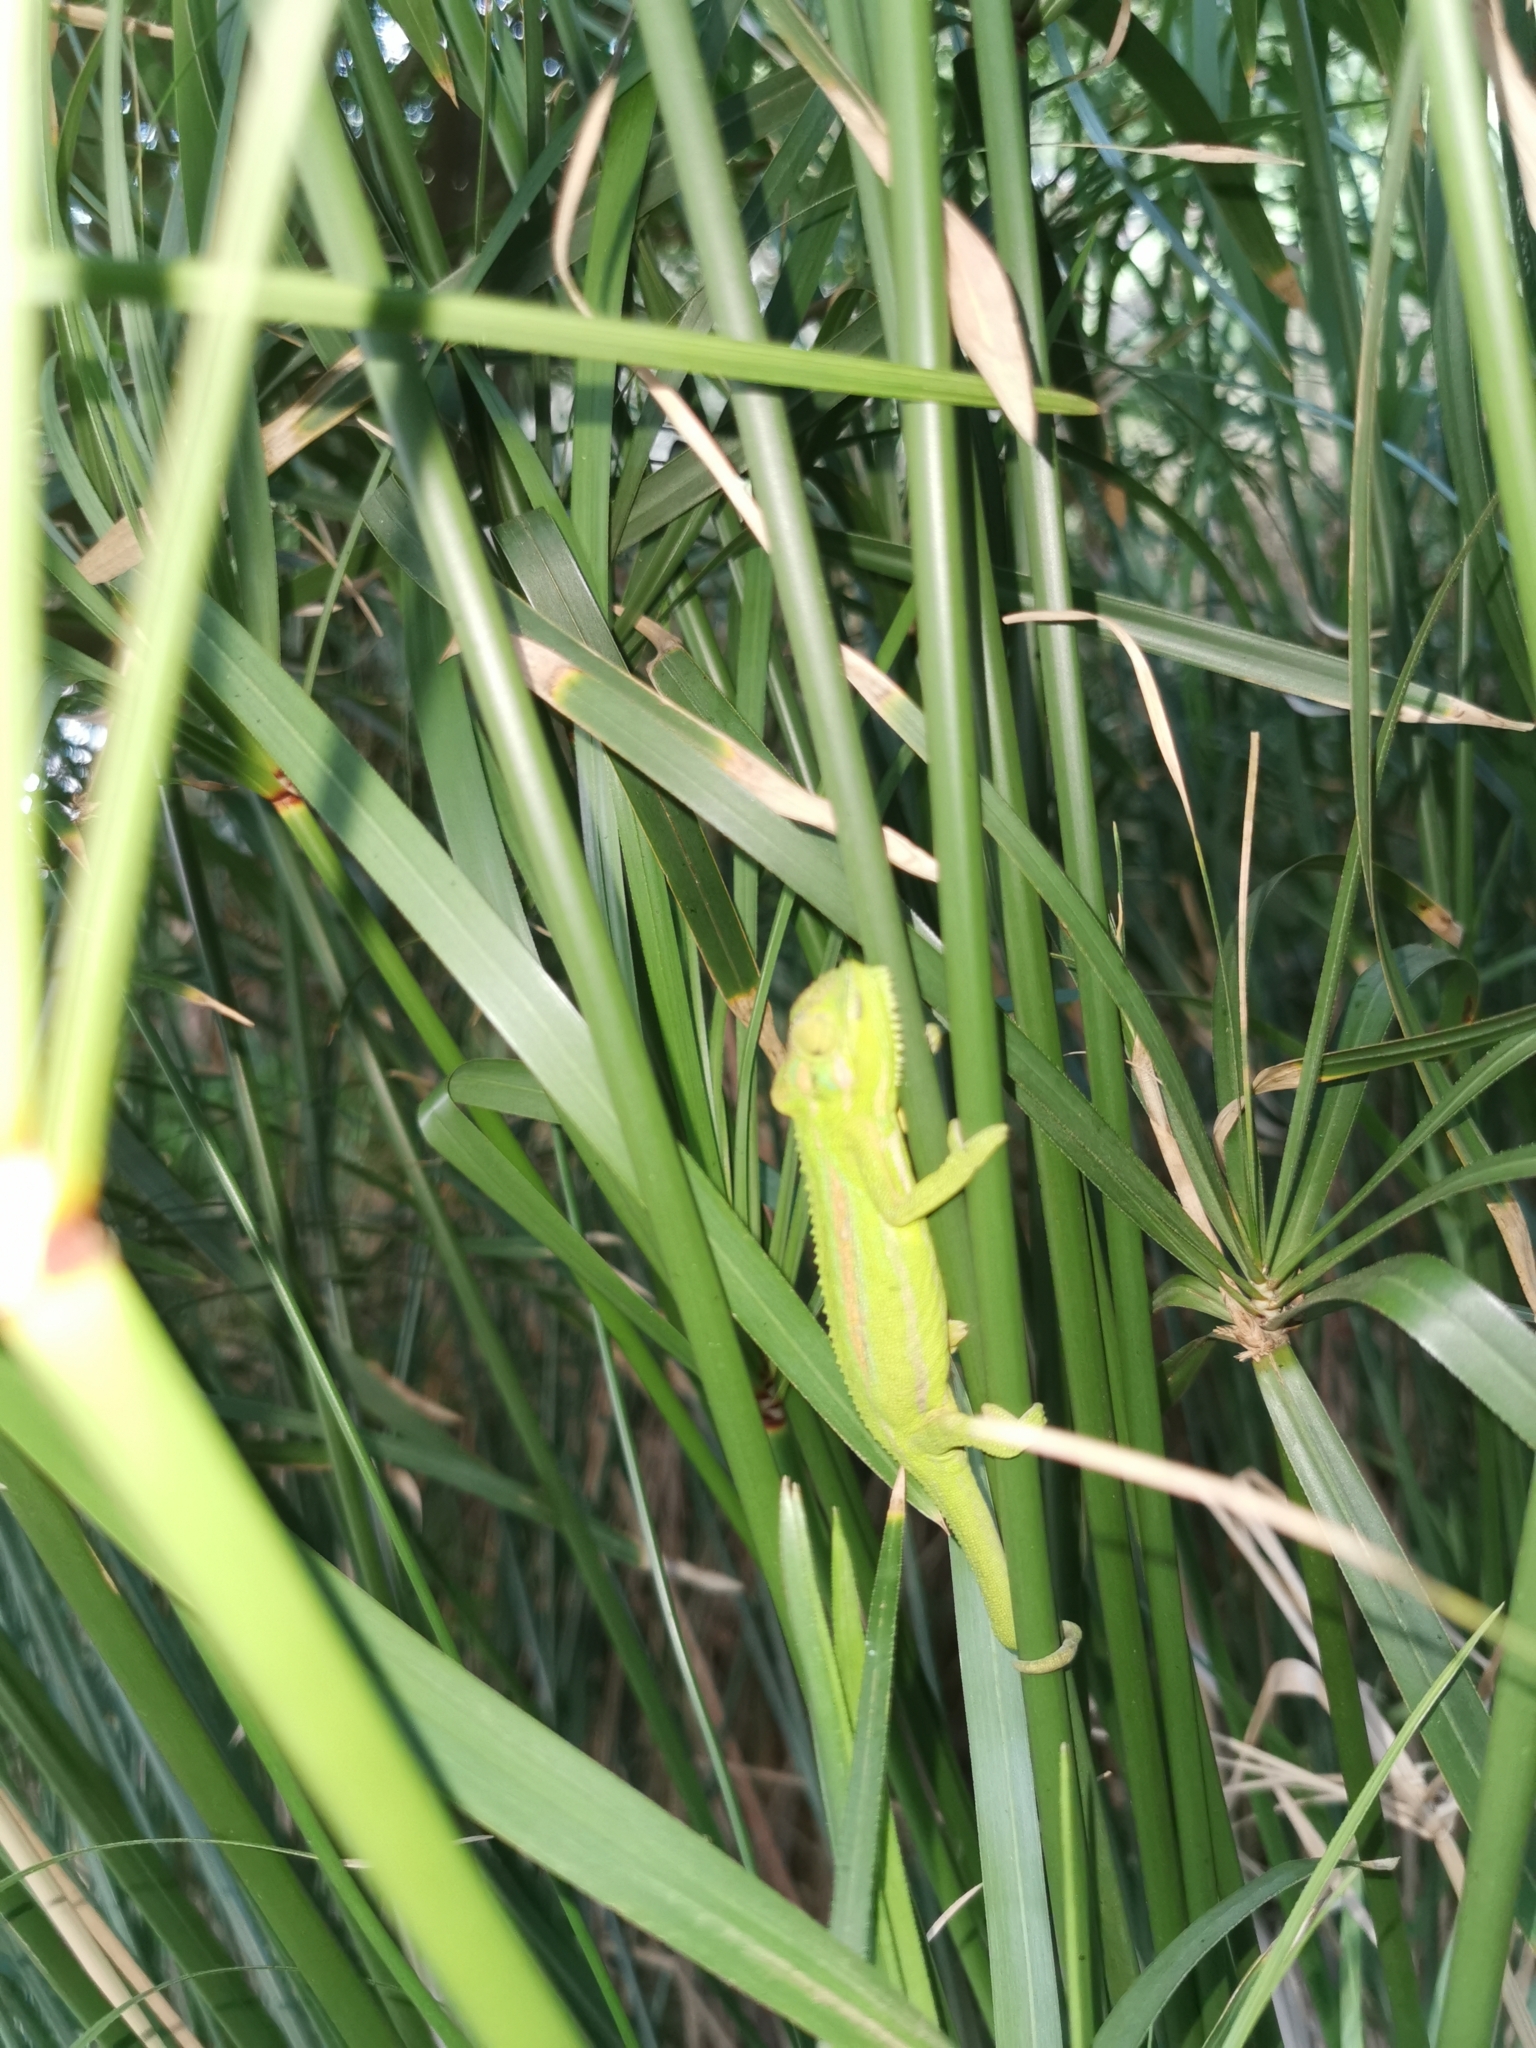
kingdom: Animalia
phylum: Chordata
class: Squamata
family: Chamaeleonidae
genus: Bradypodion
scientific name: Bradypodion pumilum
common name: Cape dwarf chameleon
